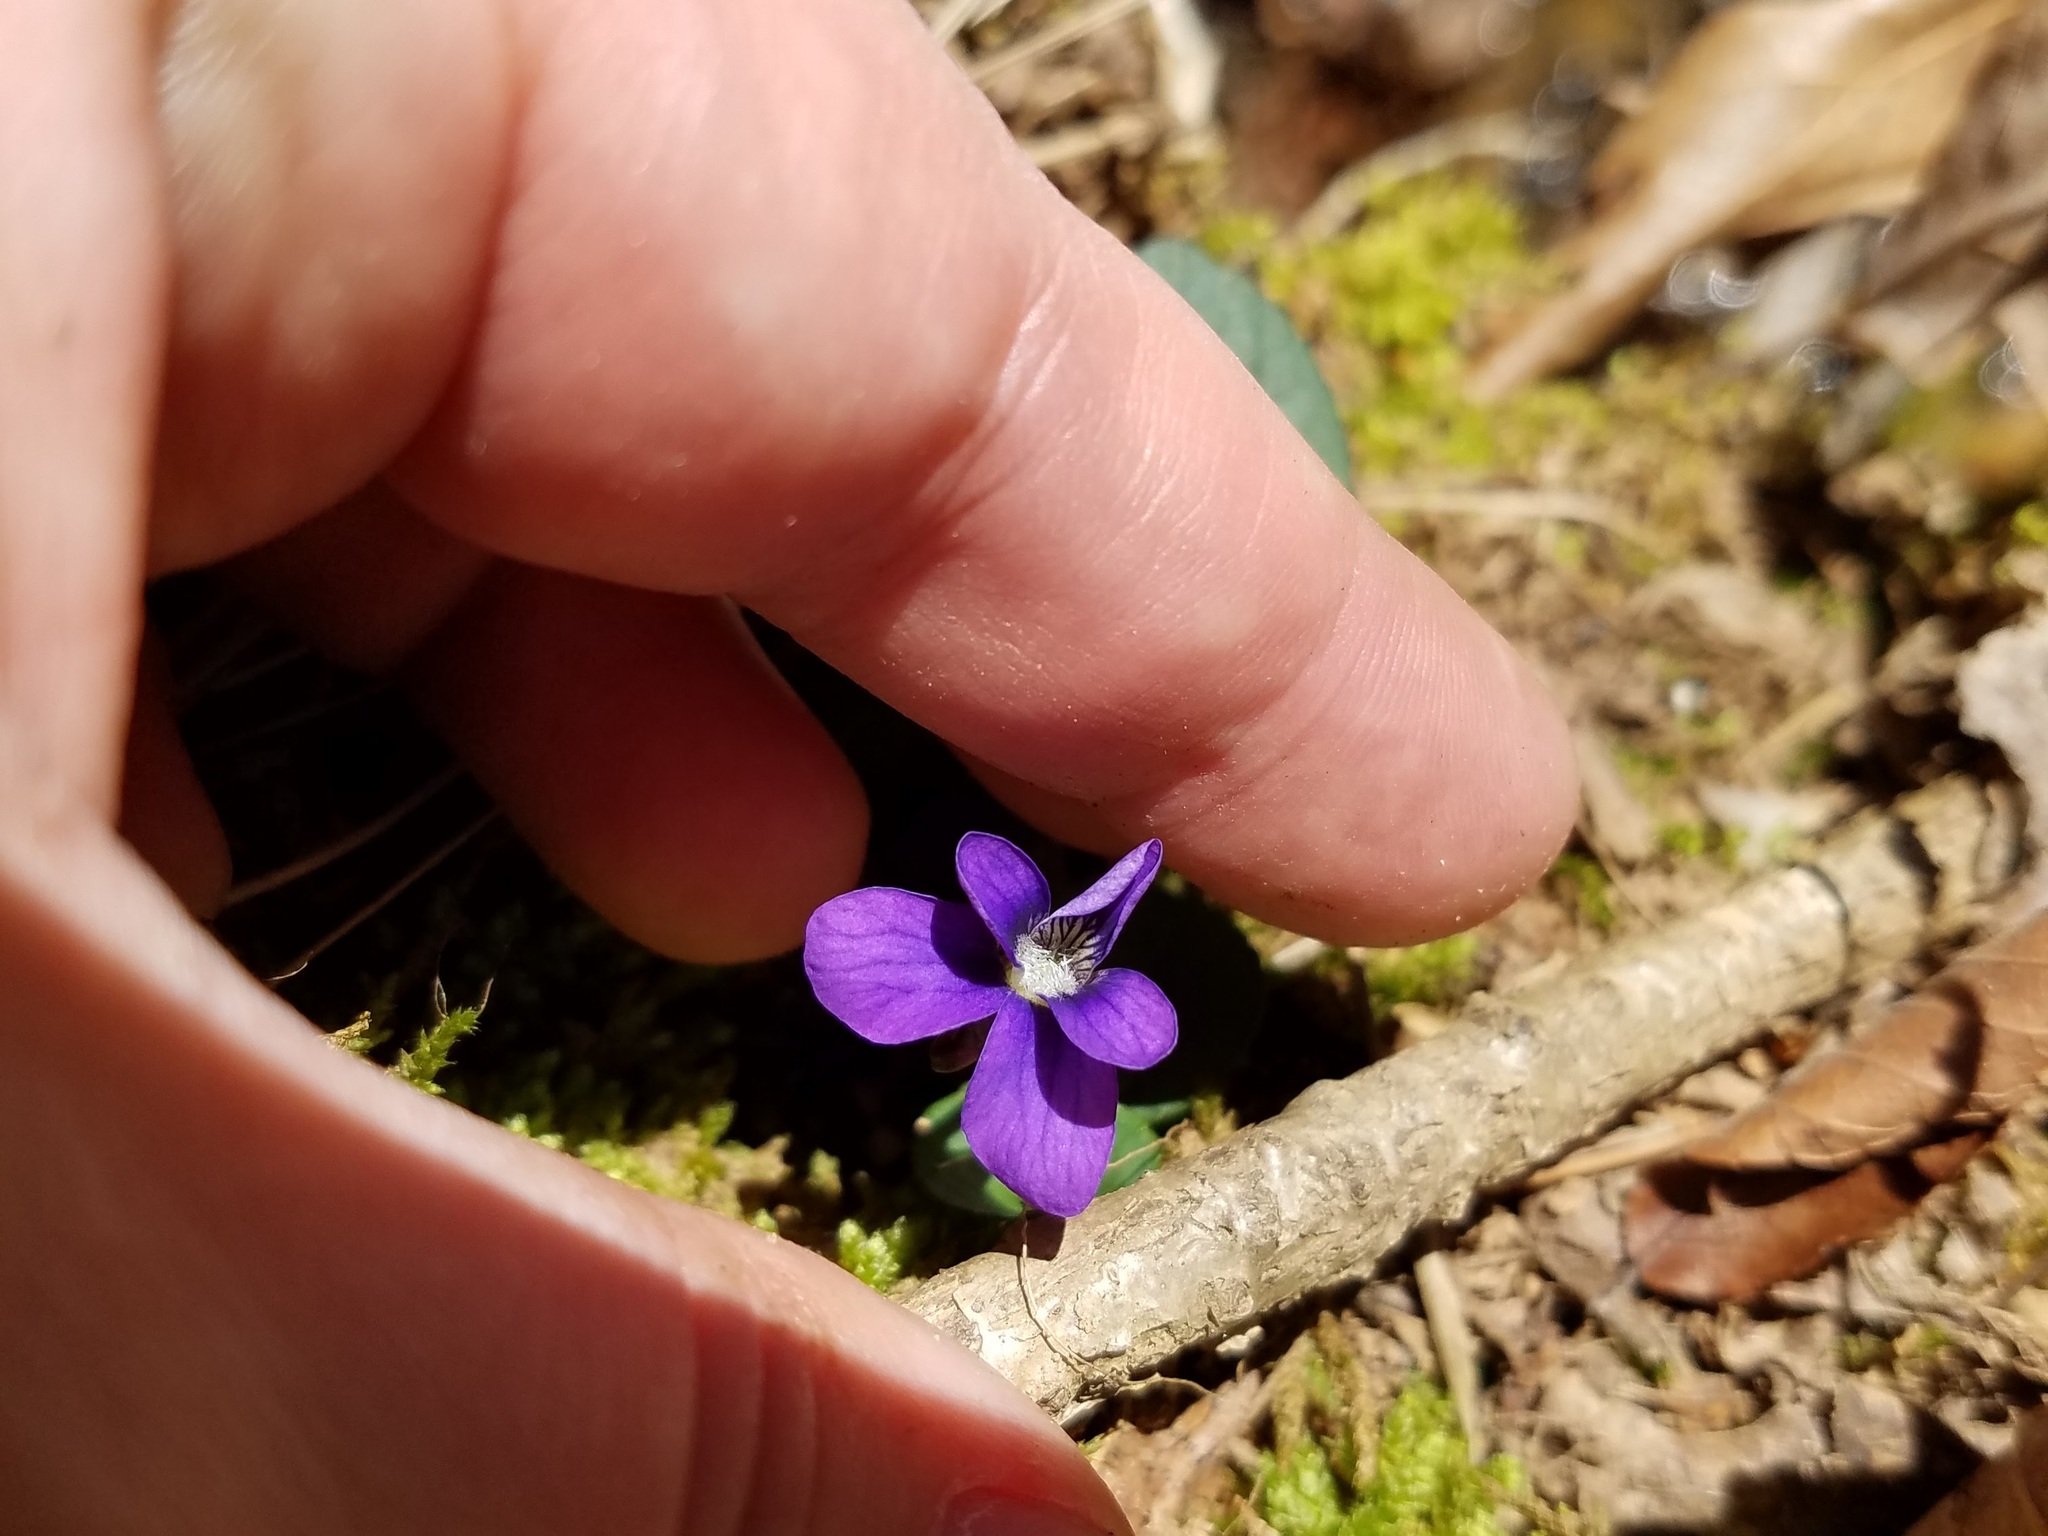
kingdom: Plantae
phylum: Tracheophyta
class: Magnoliopsida
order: Malpighiales
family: Violaceae
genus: Viola
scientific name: Viola sororia
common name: Dooryard violet
